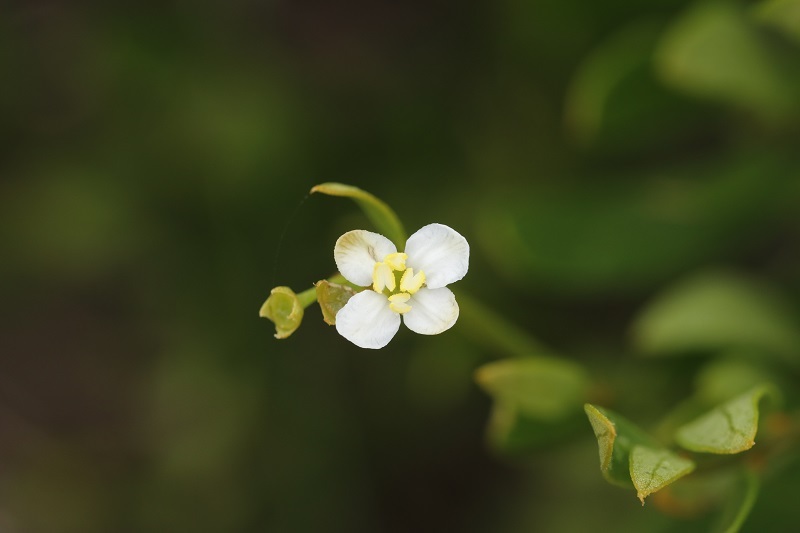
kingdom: Plantae
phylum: Tracheophyta
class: Magnoliopsida
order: Solanales
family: Montiniaceae
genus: Montinia
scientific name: Montinia caryophyllacea
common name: Wild clove-bush
